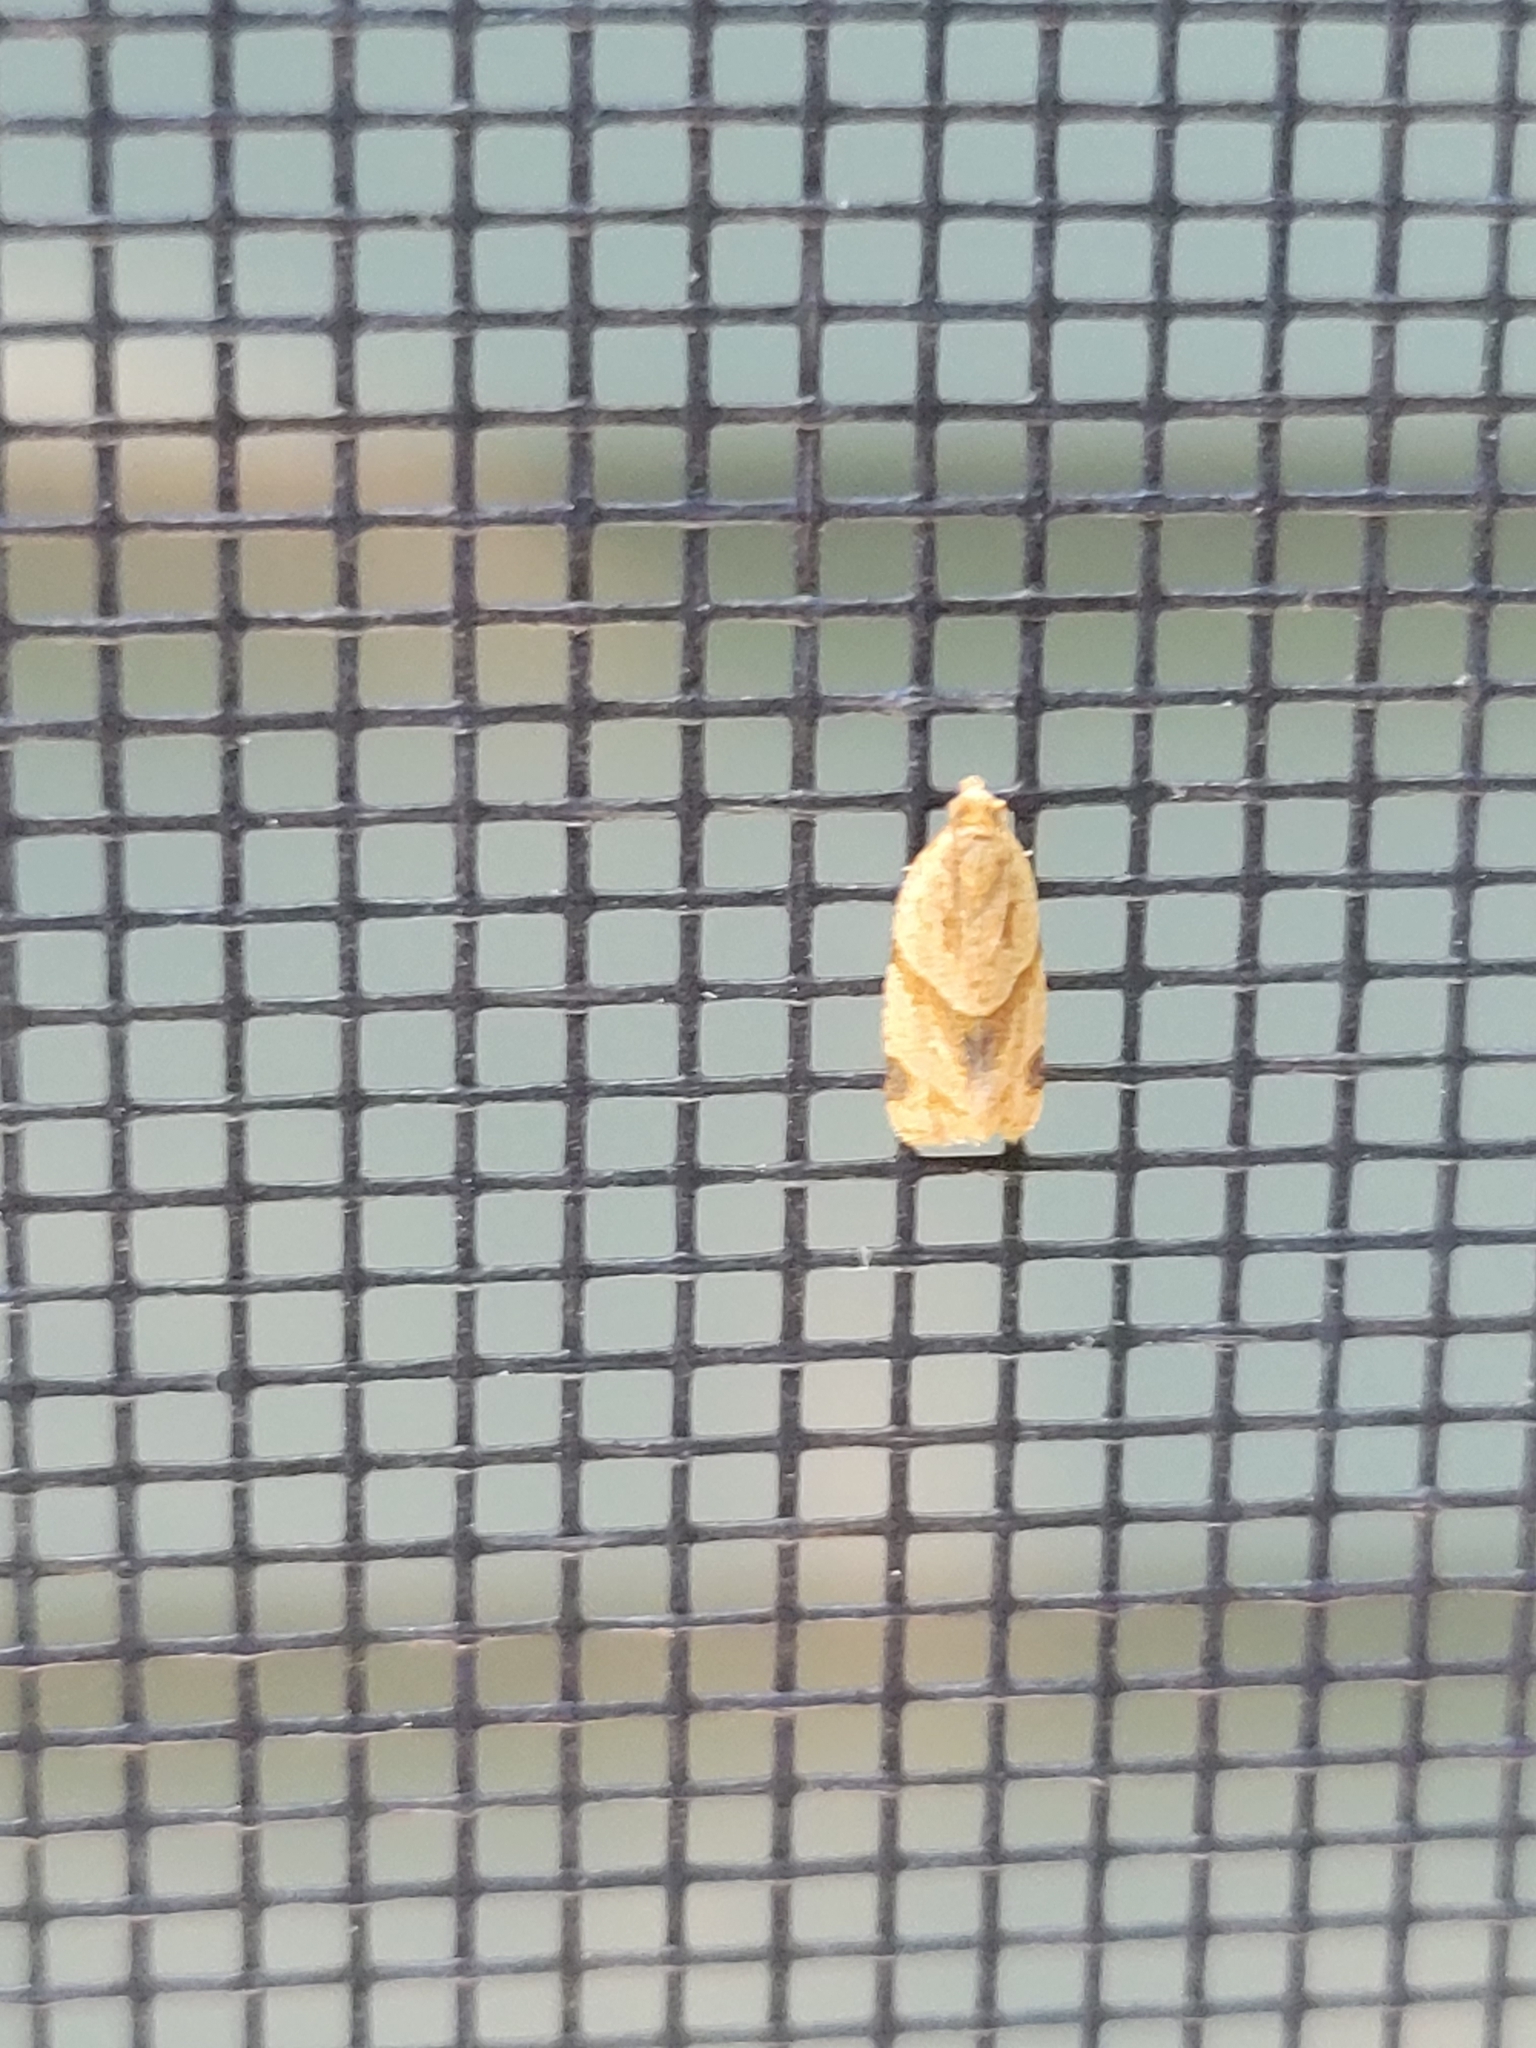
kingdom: Animalia
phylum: Arthropoda
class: Insecta
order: Lepidoptera
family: Tortricidae
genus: Clepsis
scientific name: Clepsis peritana
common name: Garden tortrix
